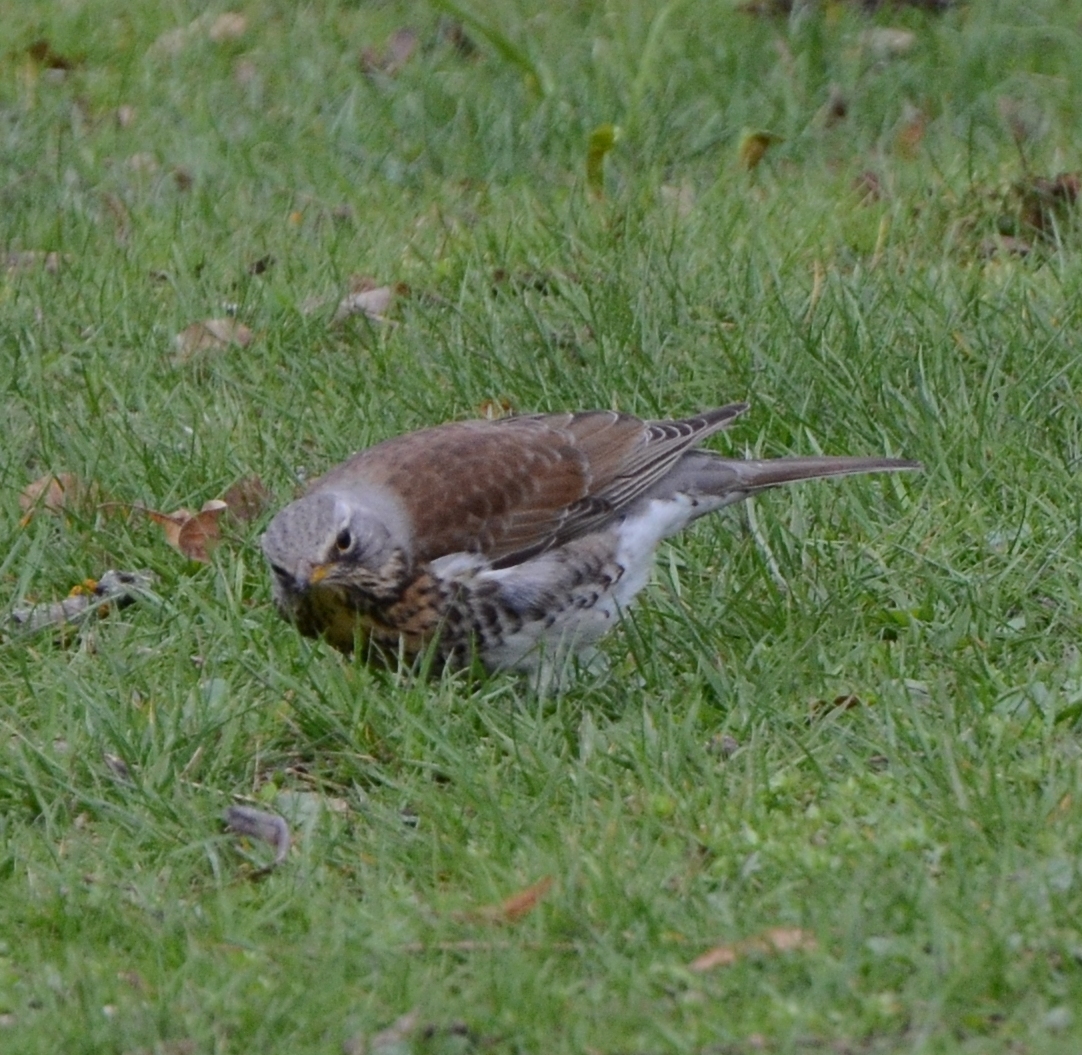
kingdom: Animalia
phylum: Chordata
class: Aves
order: Passeriformes
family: Turdidae
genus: Turdus
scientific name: Turdus pilaris
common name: Fieldfare
